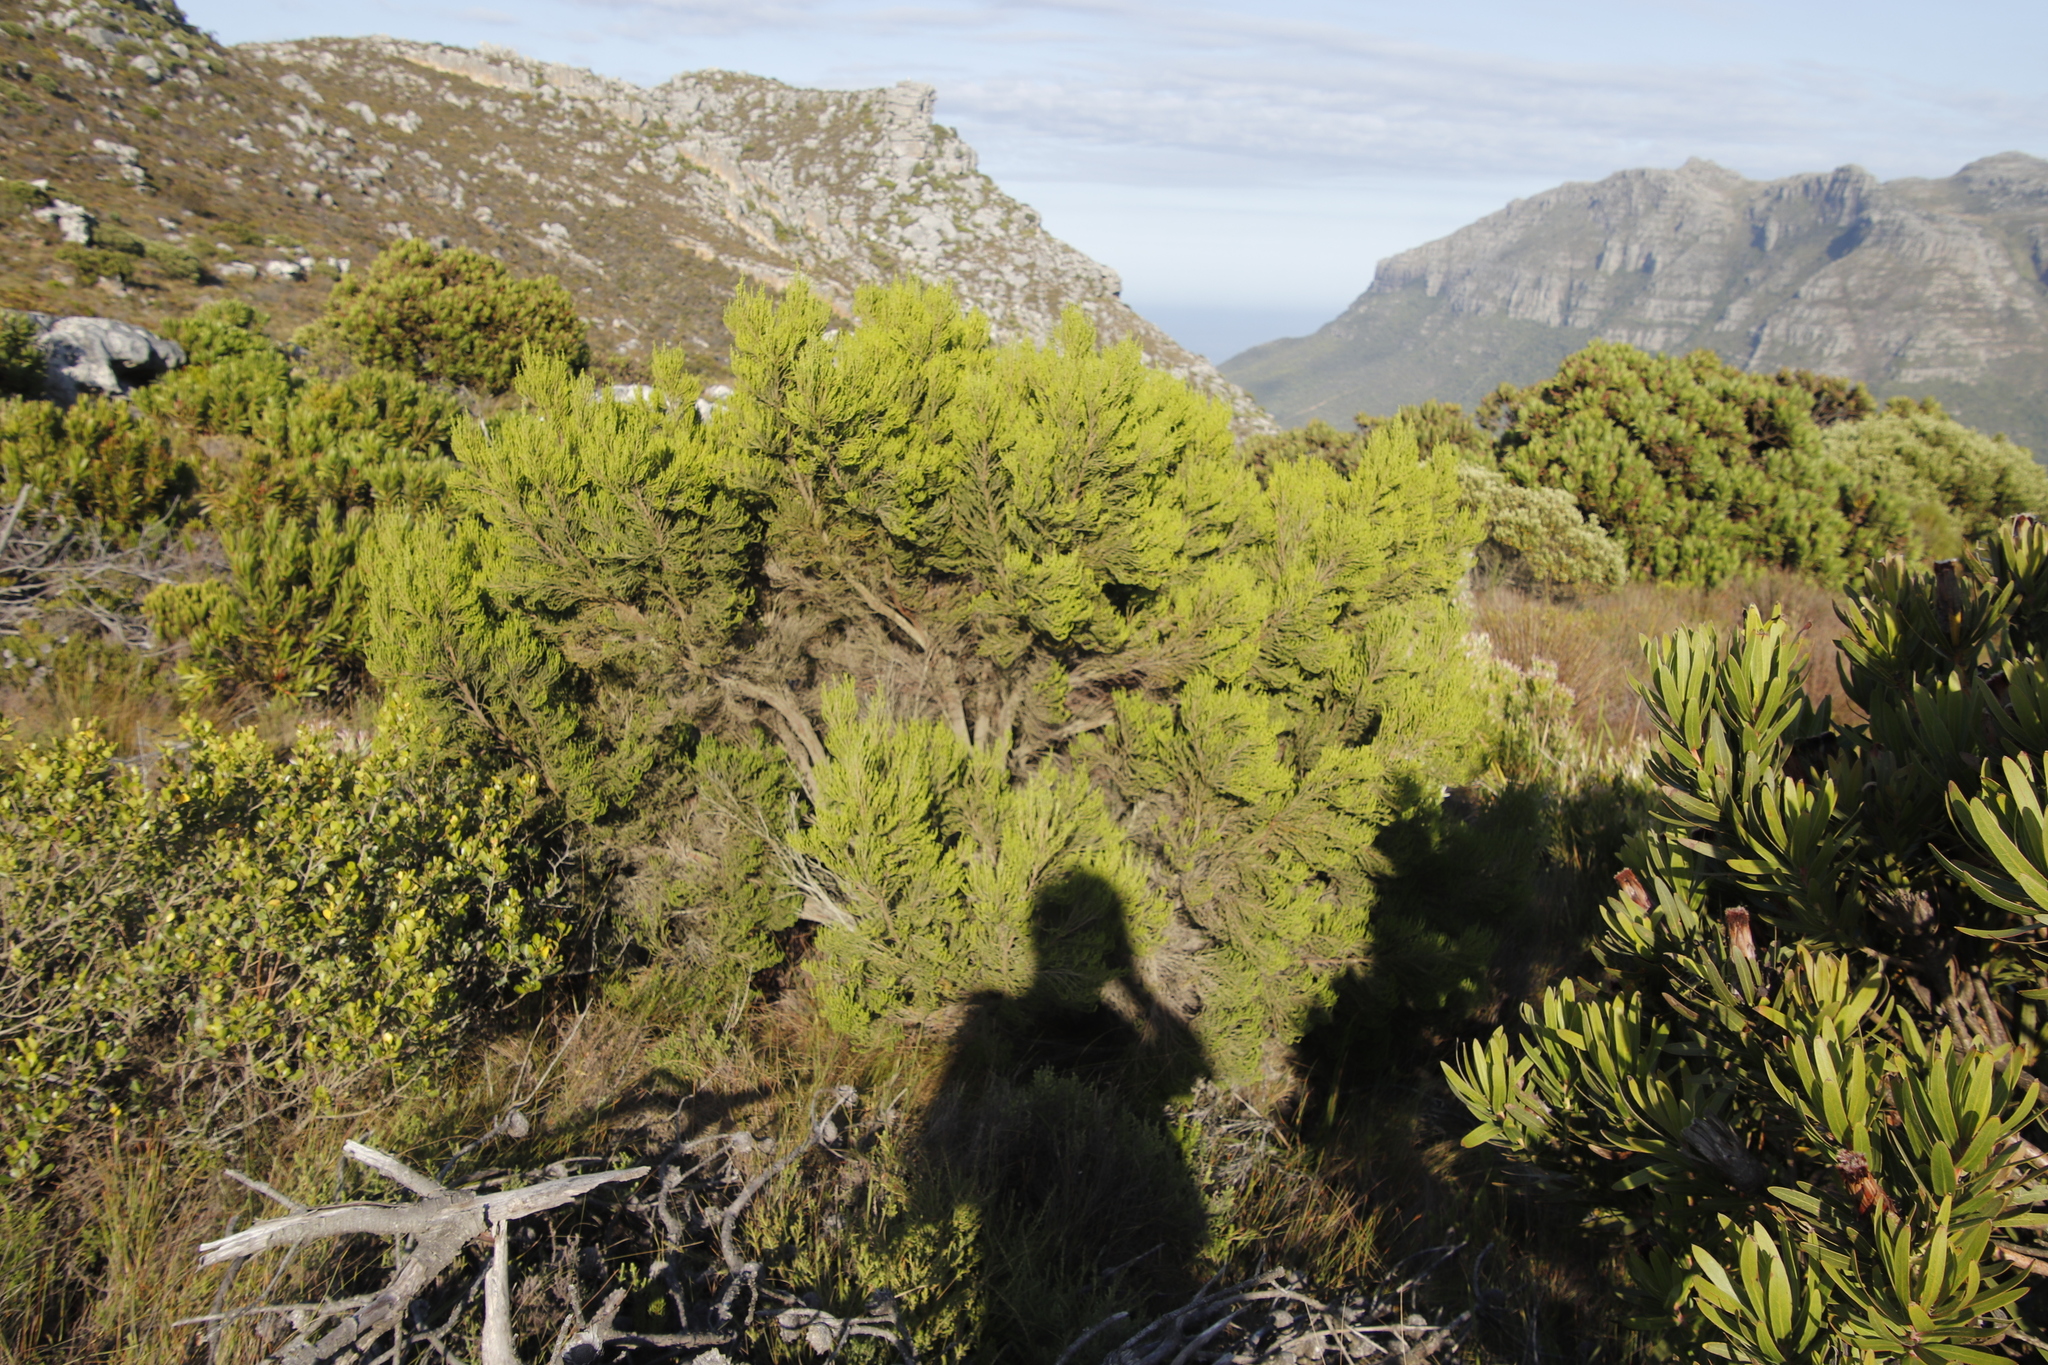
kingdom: Plantae
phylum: Tracheophyta
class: Magnoliopsida
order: Ericales
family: Ericaceae
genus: Erica
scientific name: Erica tristis
